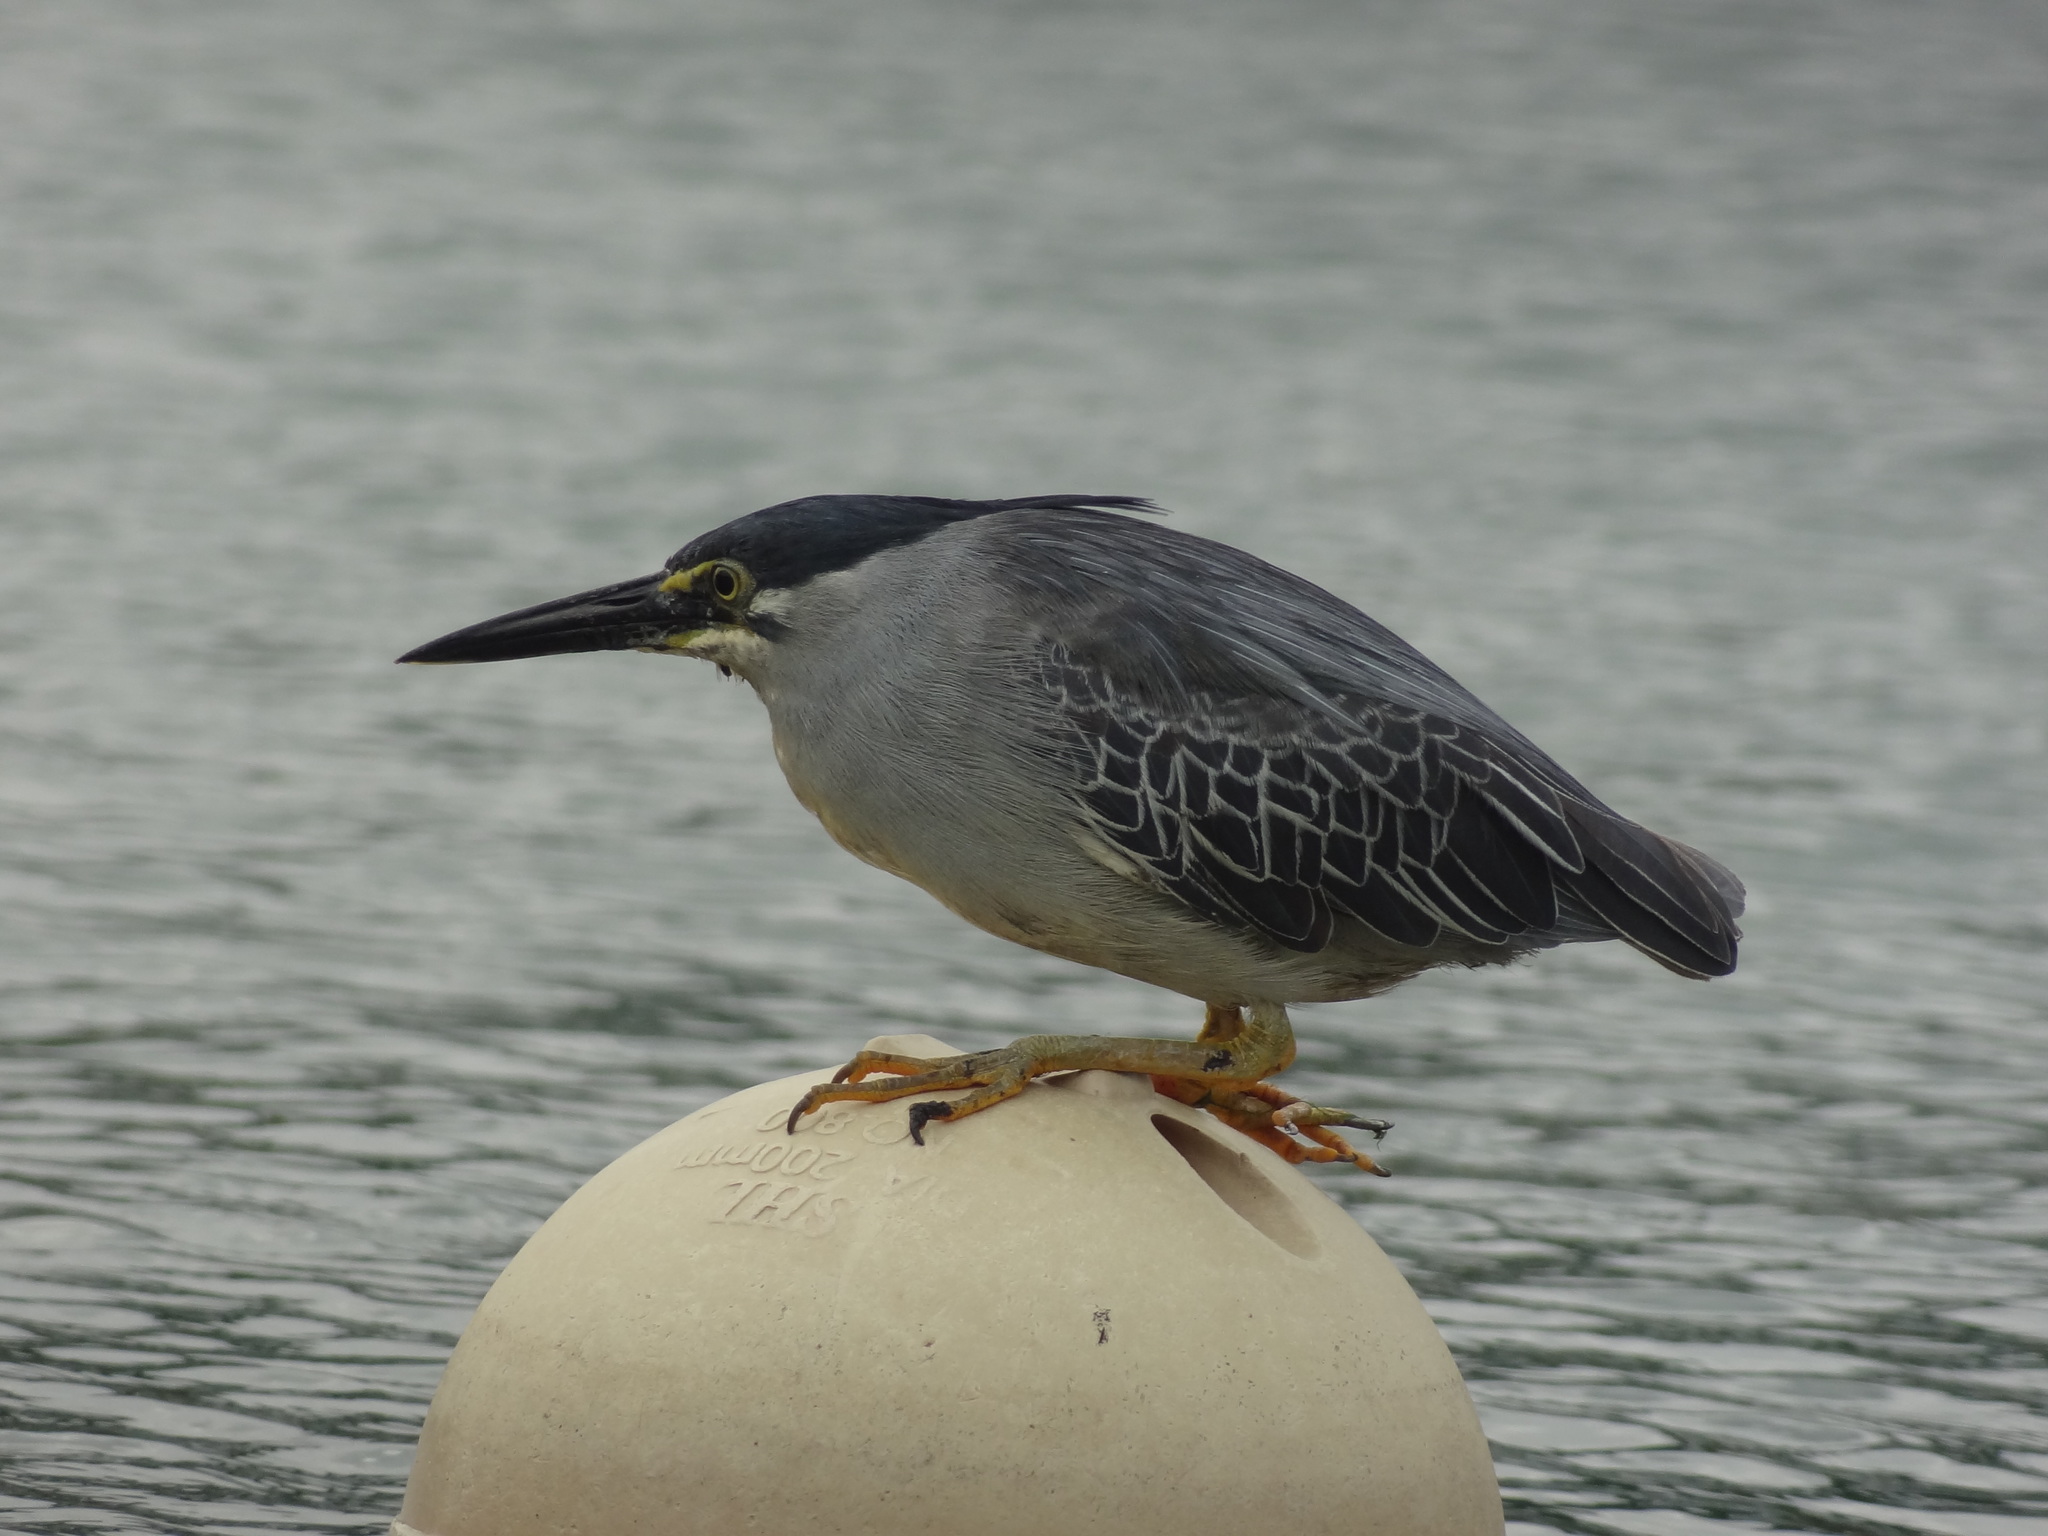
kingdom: Animalia
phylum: Chordata
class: Aves
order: Pelecaniformes
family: Ardeidae
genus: Butorides
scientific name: Butorides striata
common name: Striated heron
